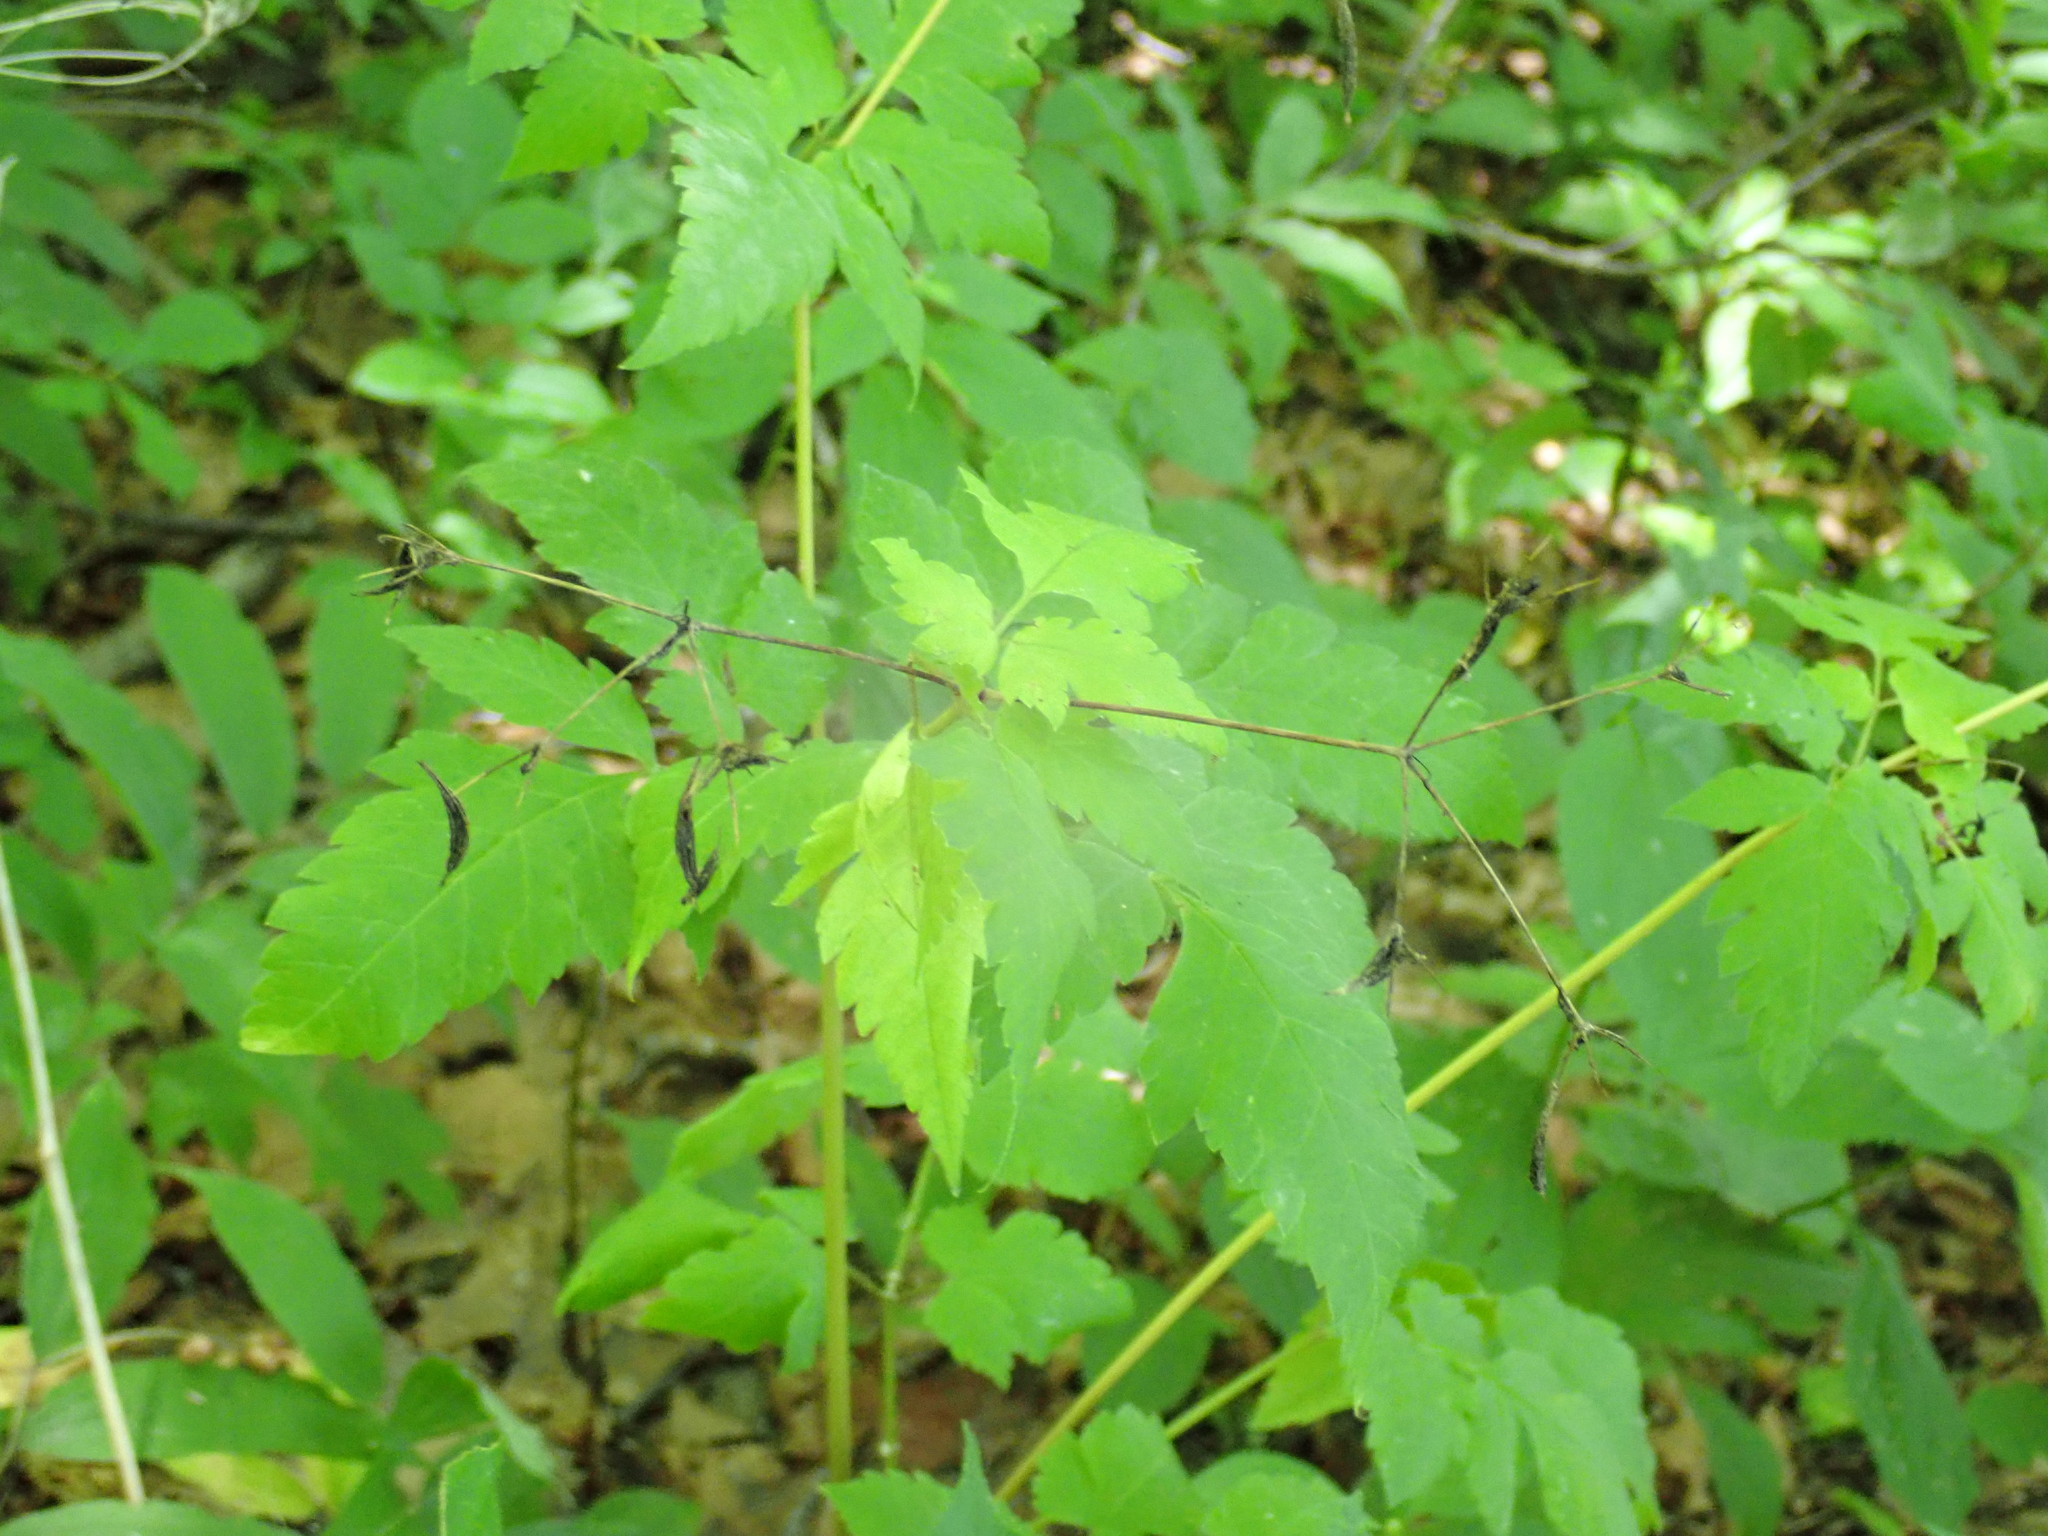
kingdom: Plantae
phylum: Tracheophyta
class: Magnoliopsida
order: Apiales
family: Apiaceae
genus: Osmorhiza
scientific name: Osmorhiza
